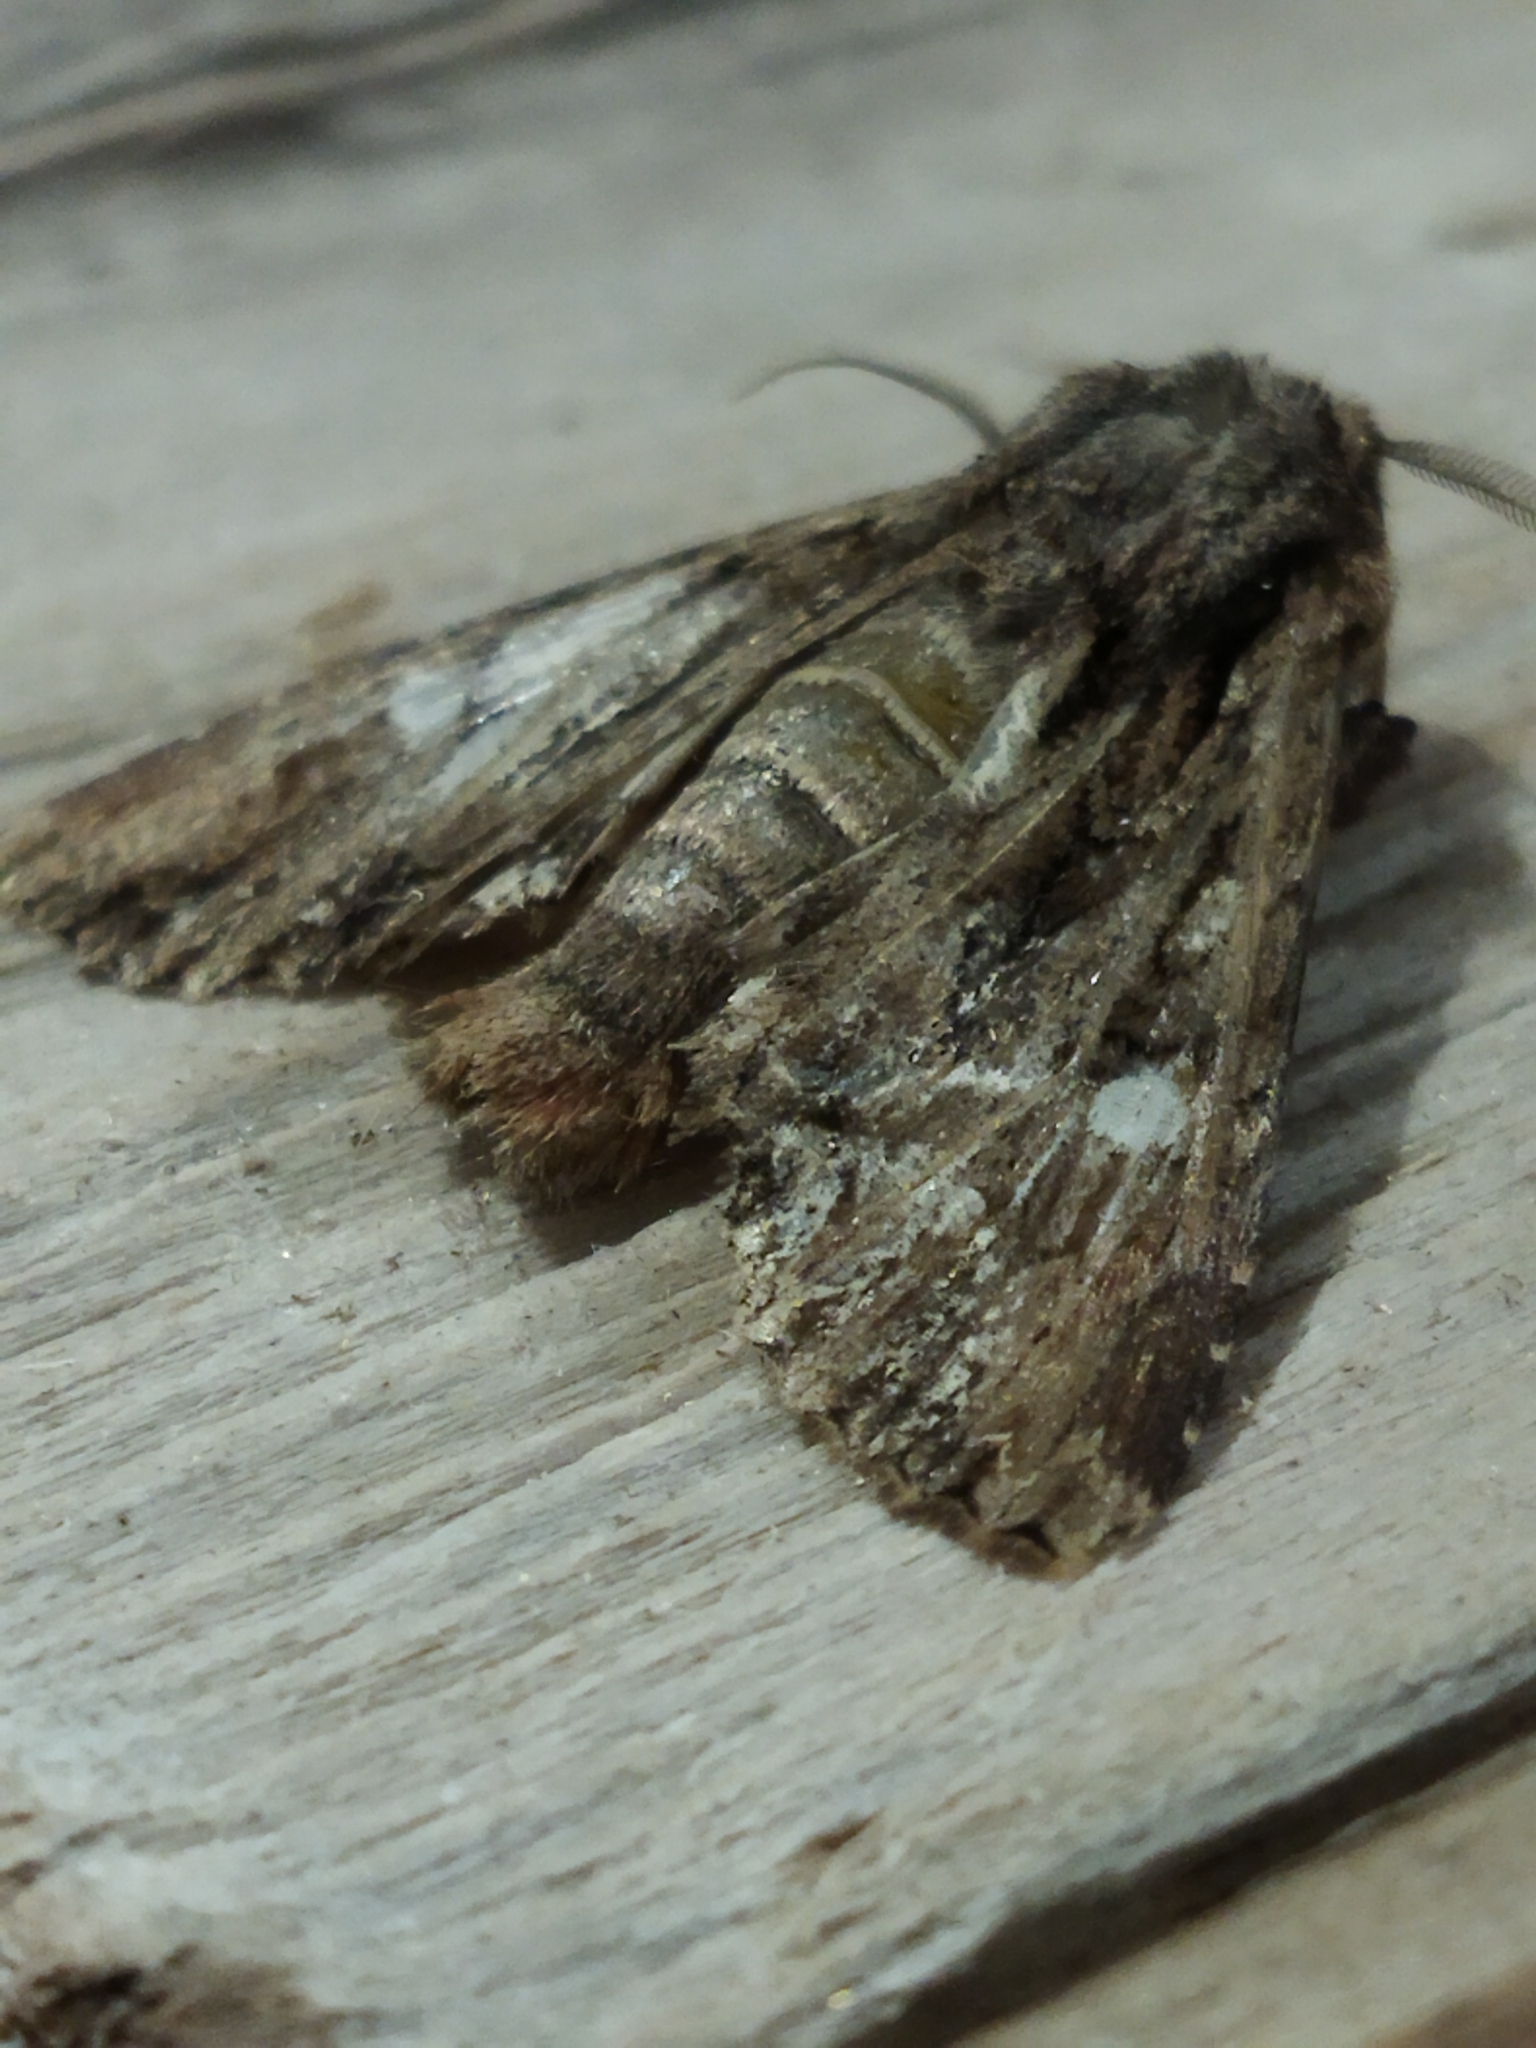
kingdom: Animalia
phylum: Arthropoda
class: Insecta
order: Lepidoptera
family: Noctuidae
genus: Polymixis
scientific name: Polymixis trisignata
